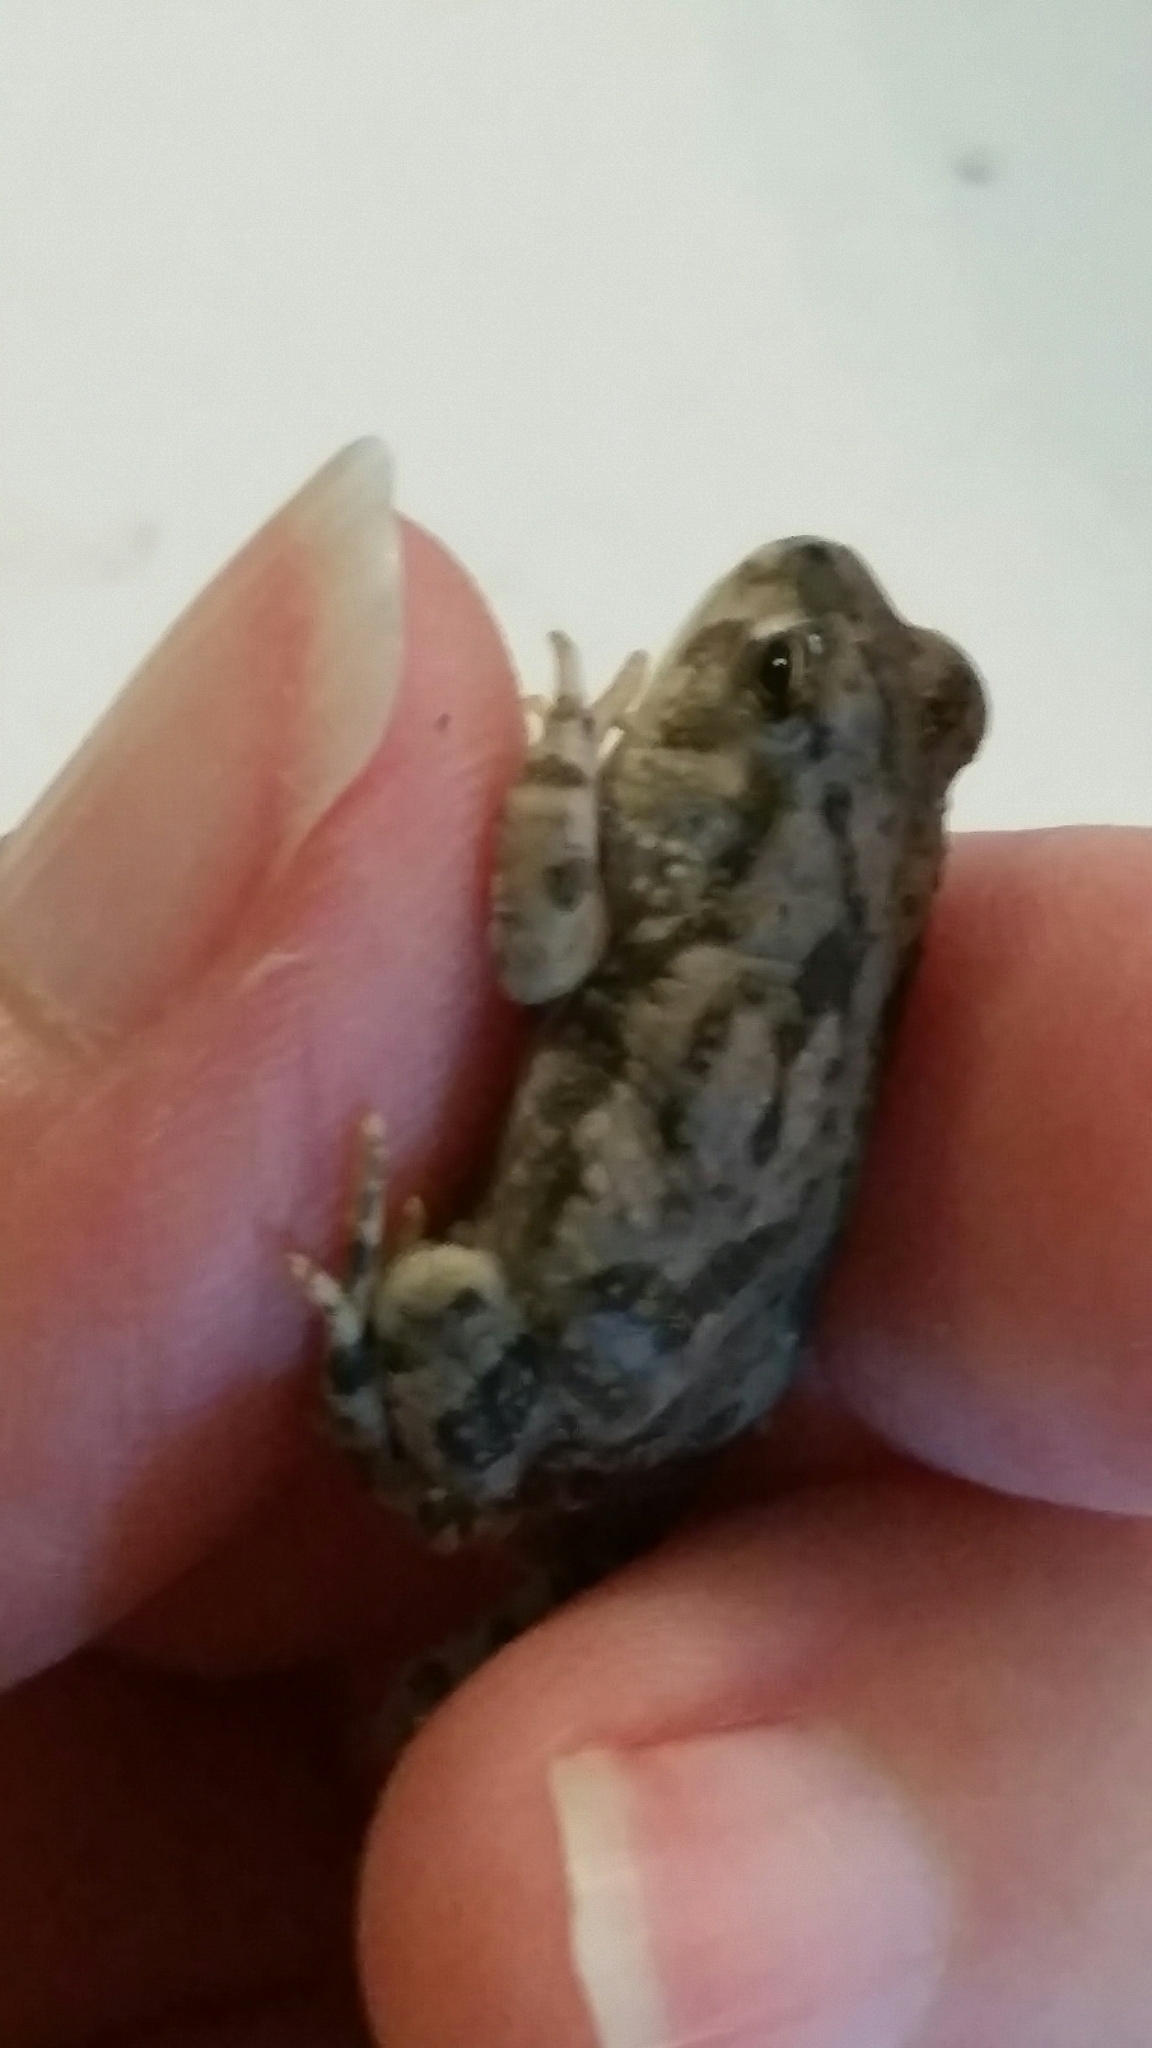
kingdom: Animalia
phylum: Chordata
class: Amphibia
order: Anura
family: Bufonidae
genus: Anaxyrus
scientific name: Anaxyrus speciosus
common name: Texas toad
